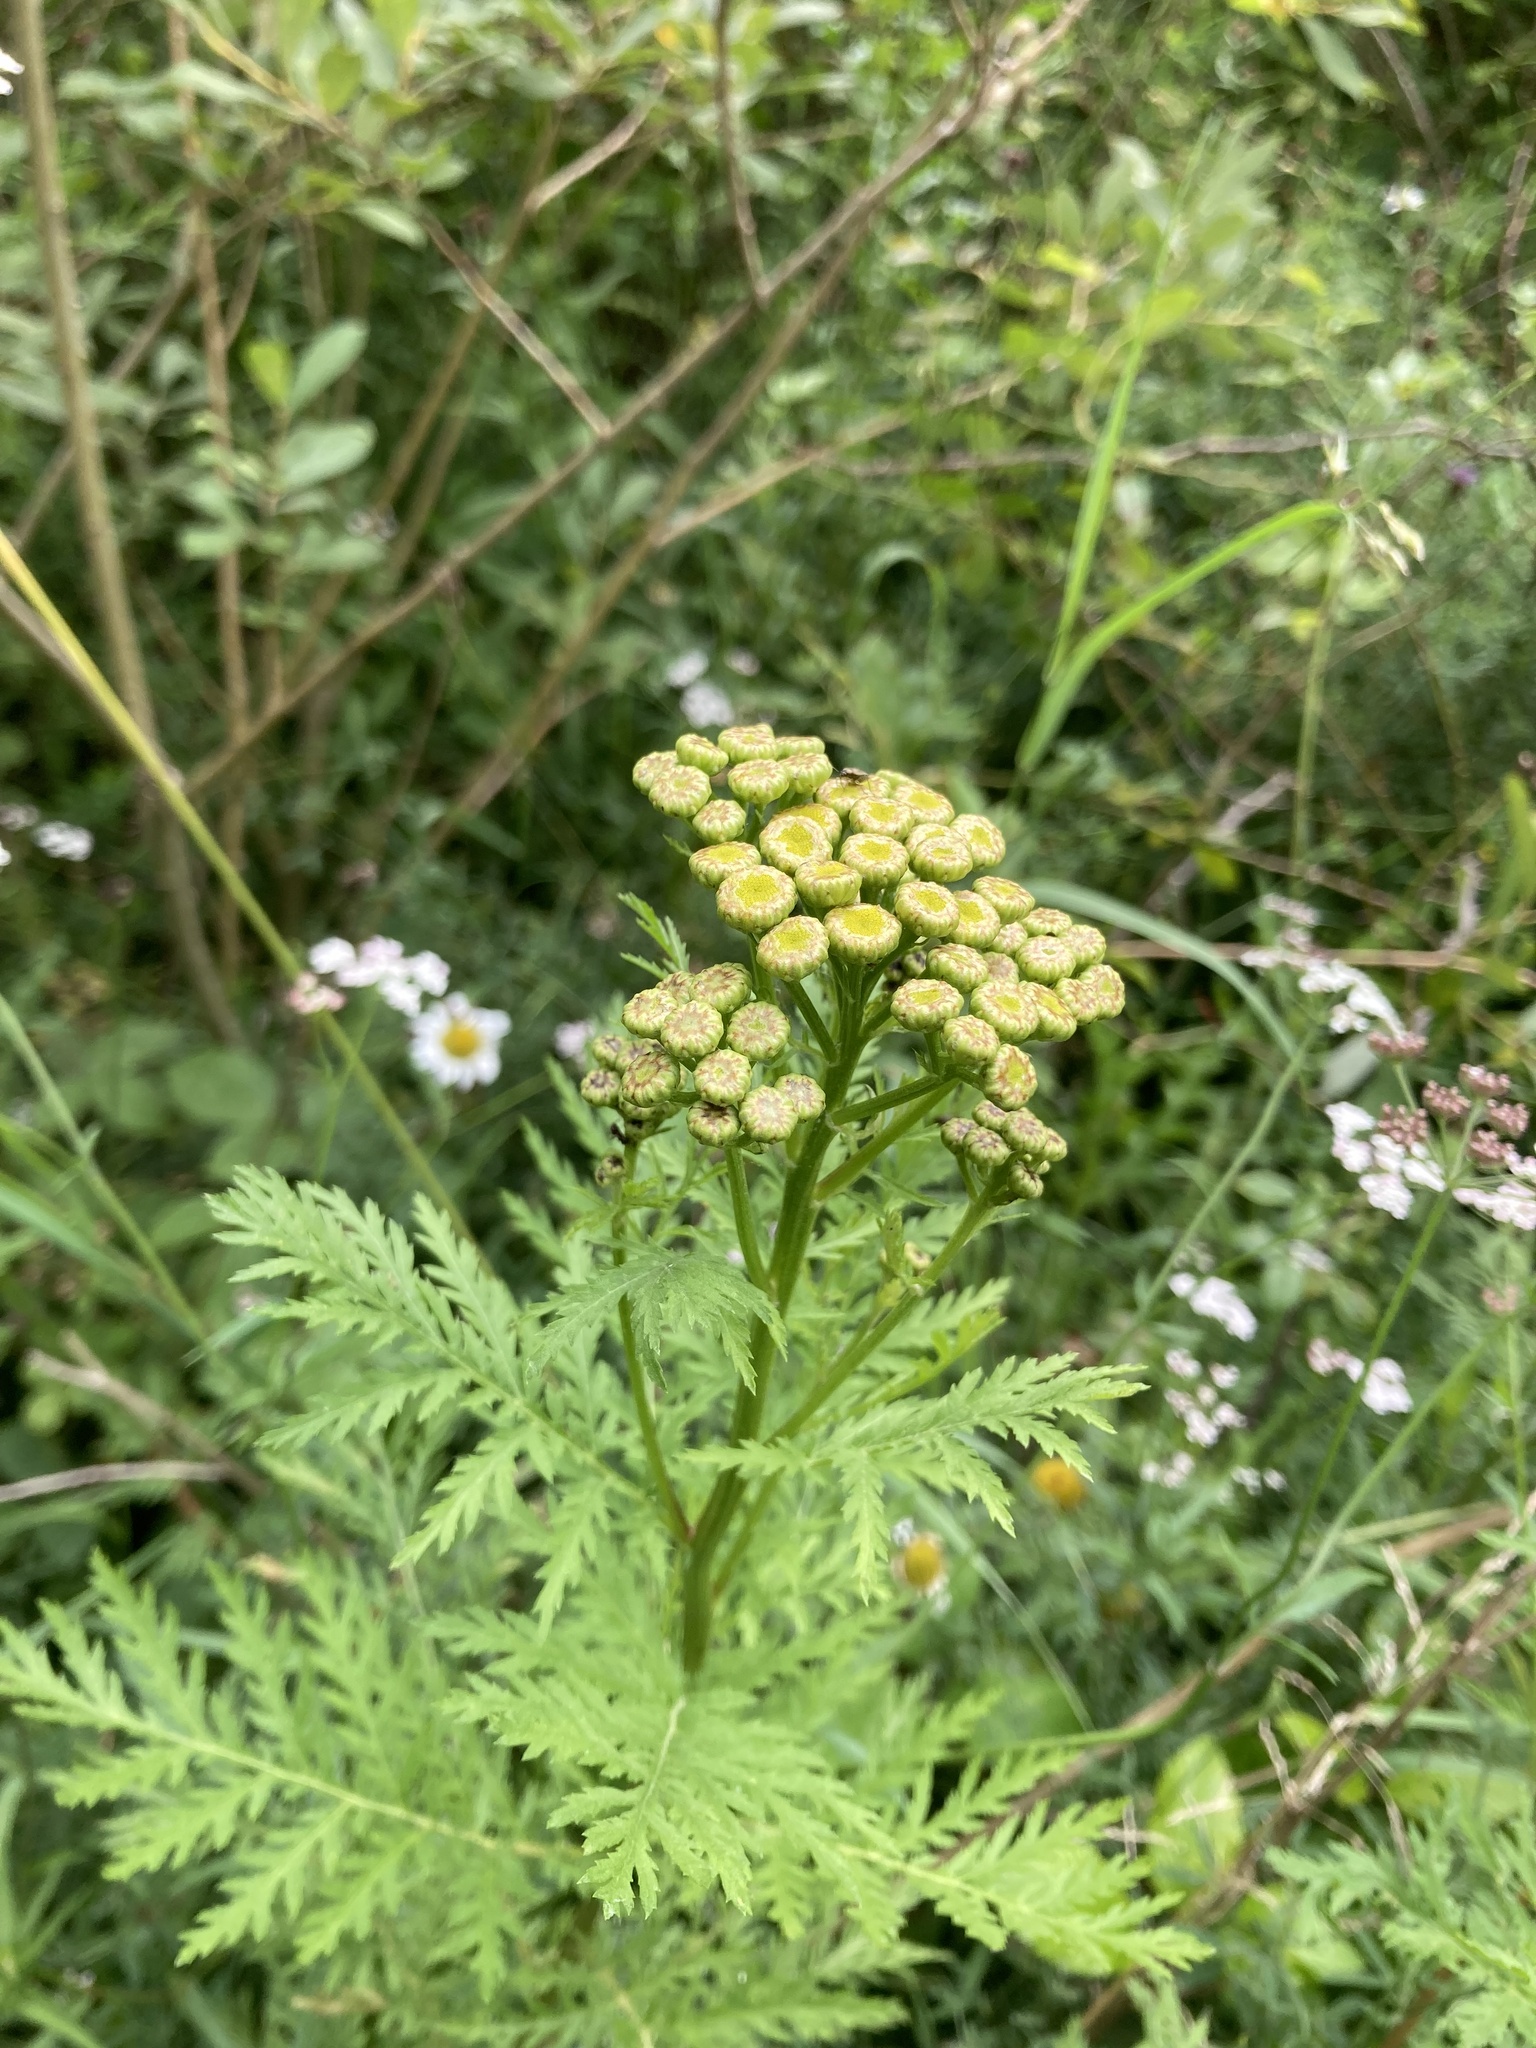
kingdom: Plantae
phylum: Tracheophyta
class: Magnoliopsida
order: Asterales
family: Asteraceae
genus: Tanacetum
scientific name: Tanacetum vulgare
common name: Common tansy
